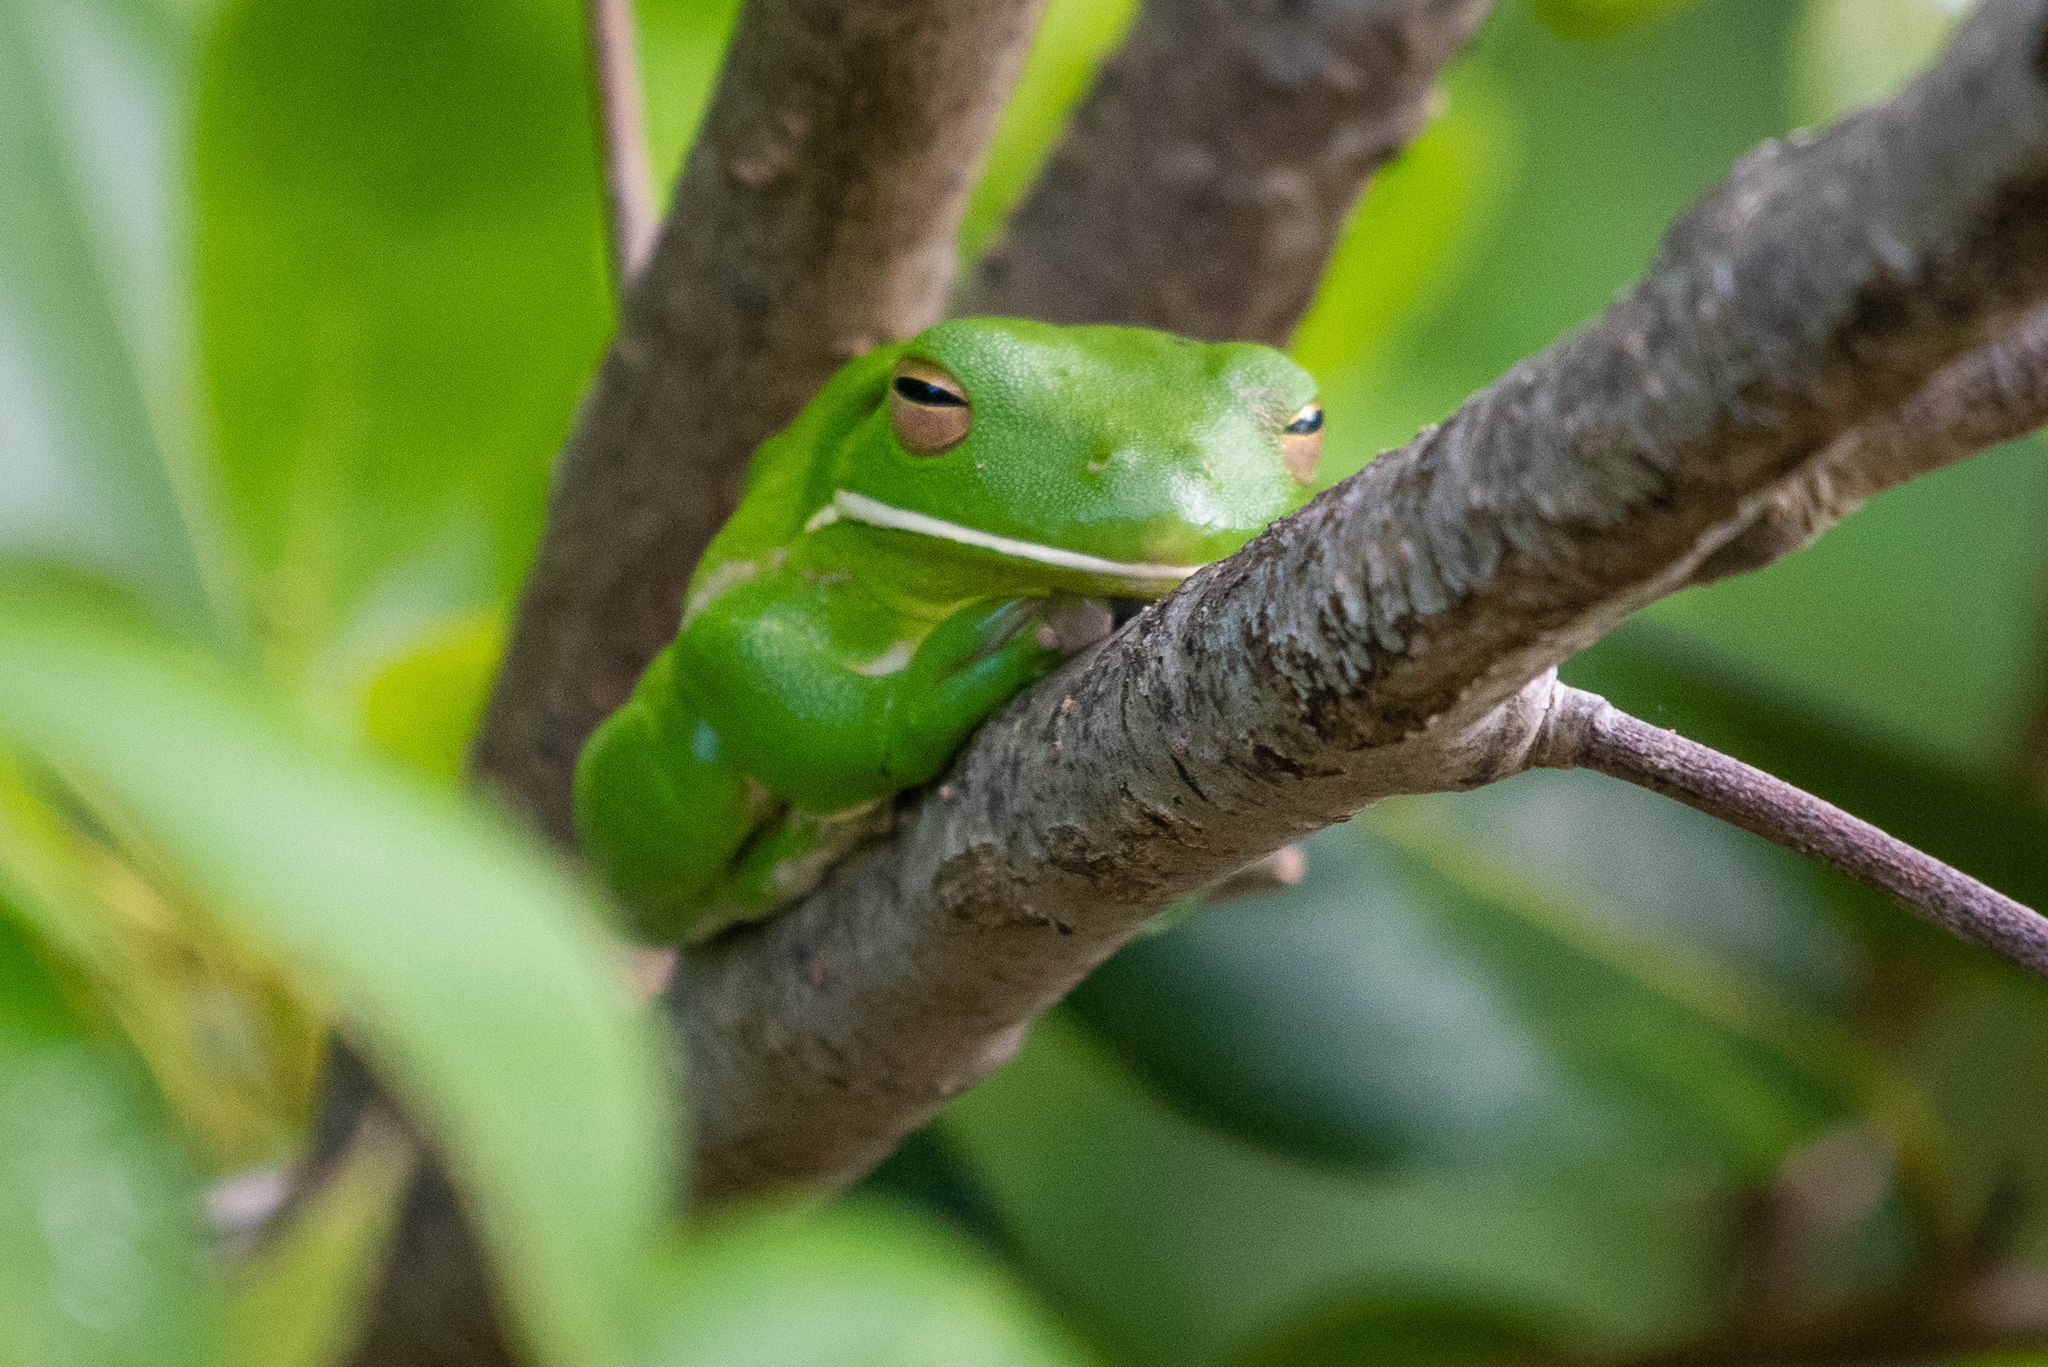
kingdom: Animalia
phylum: Chordata
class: Amphibia
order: Anura
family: Pelodryadidae
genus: Nyctimystes
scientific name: Nyctimystes infrafrenatus
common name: Australian giant treefrog
